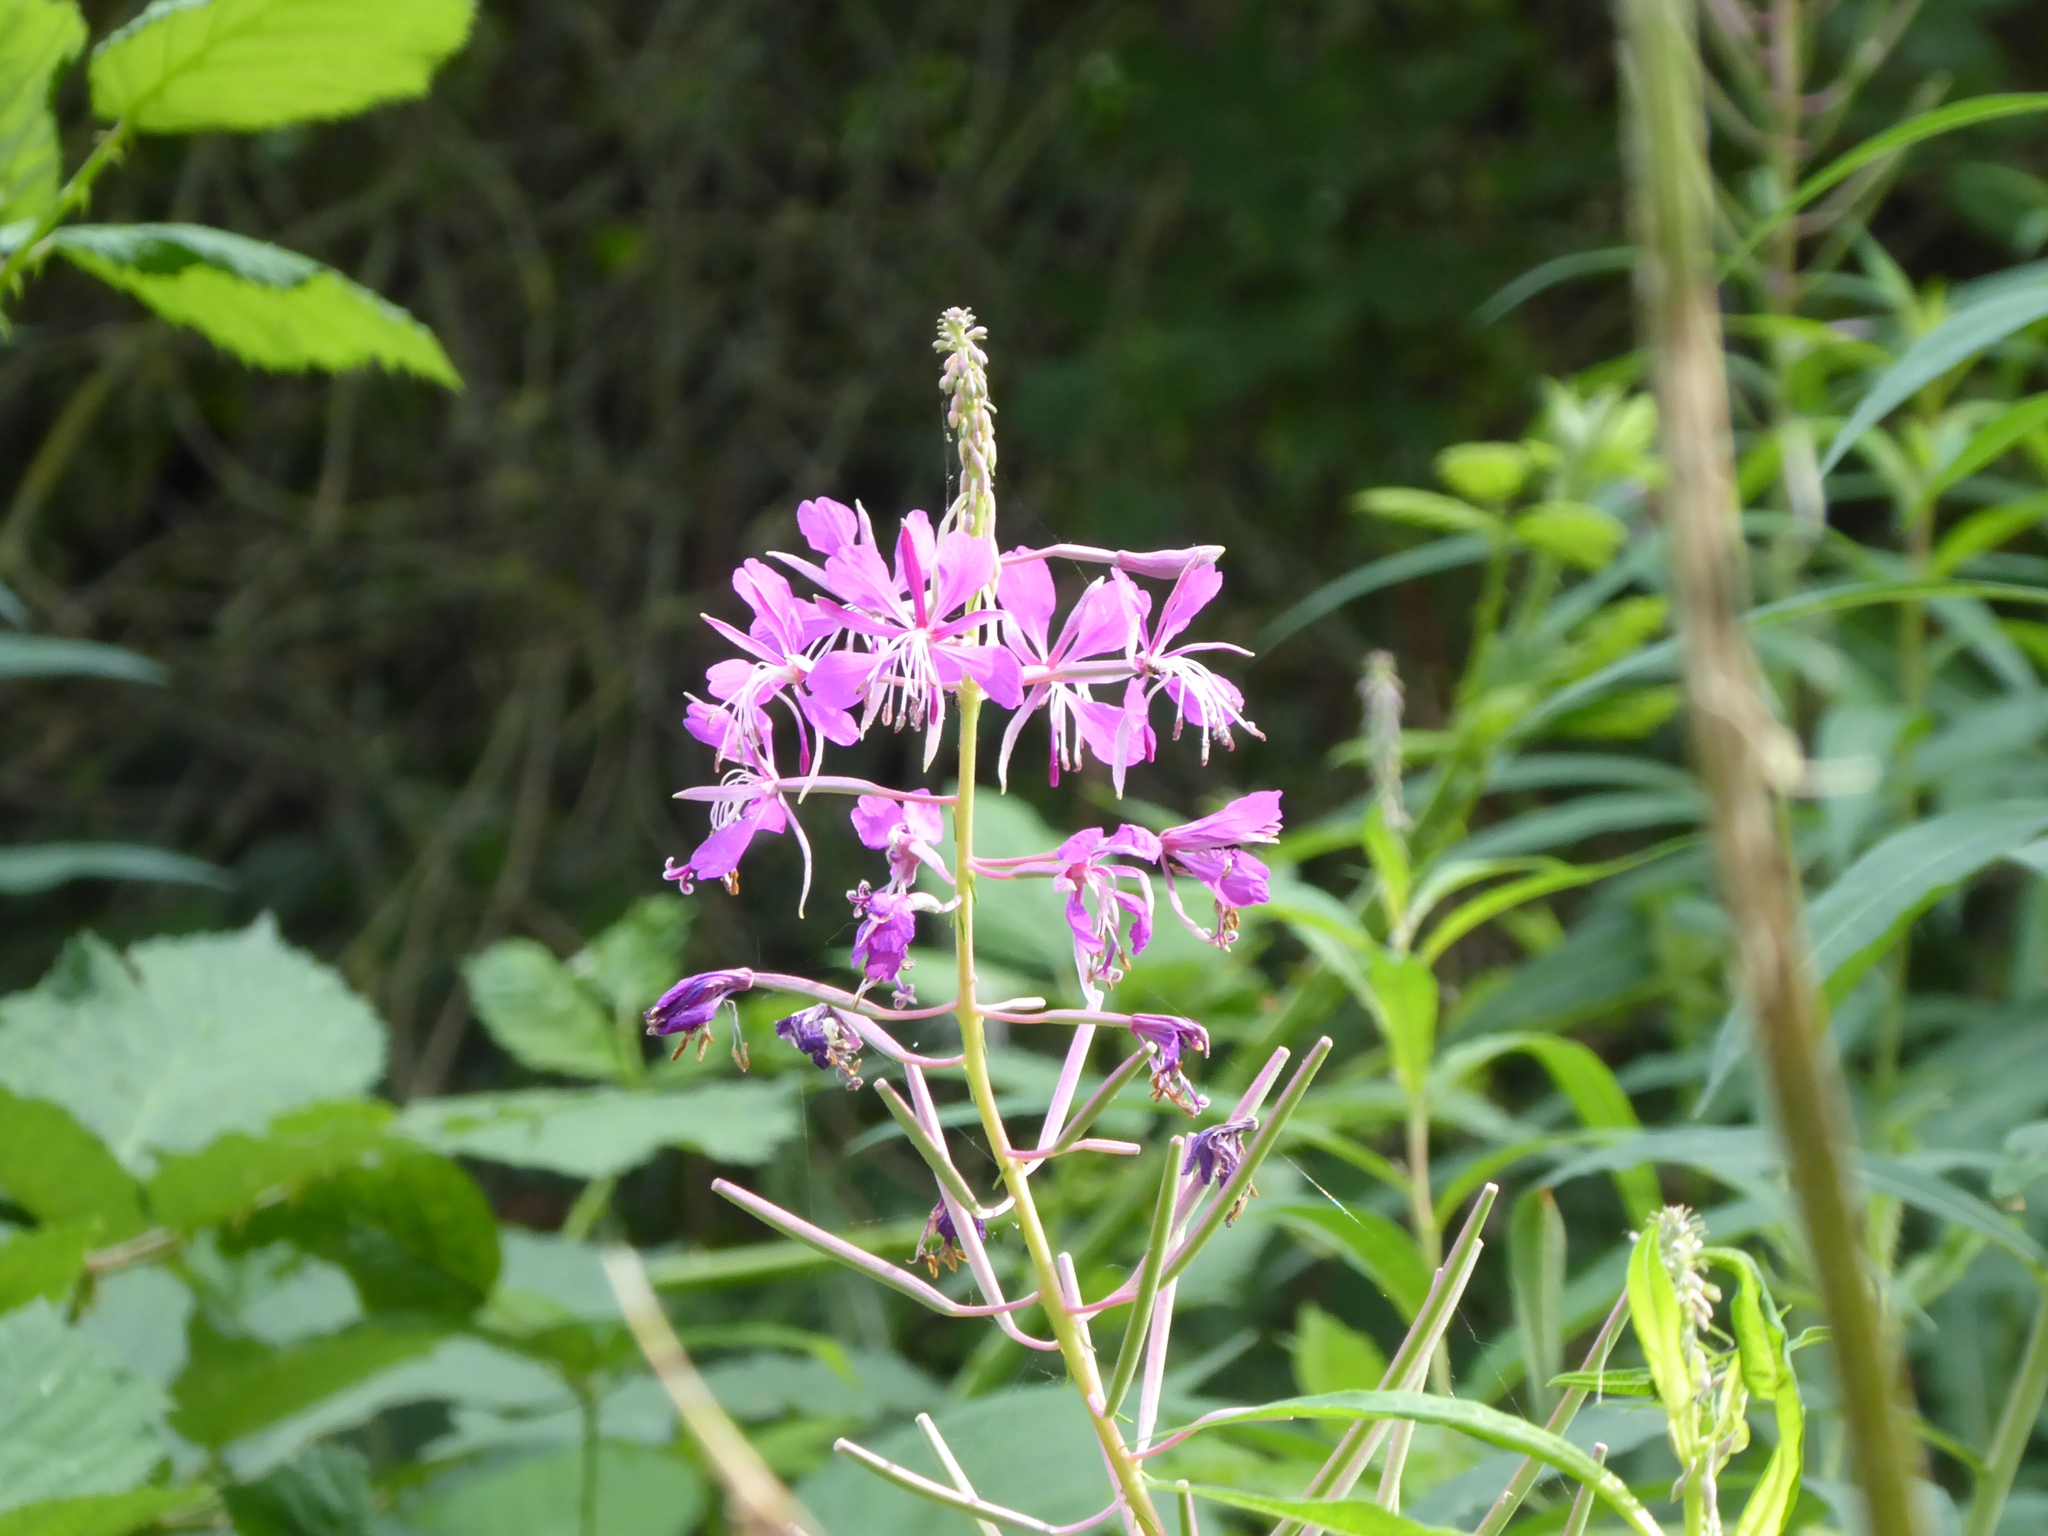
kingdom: Plantae
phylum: Tracheophyta
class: Magnoliopsida
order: Myrtales
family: Onagraceae
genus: Chamaenerion
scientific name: Chamaenerion angustifolium
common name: Fireweed
